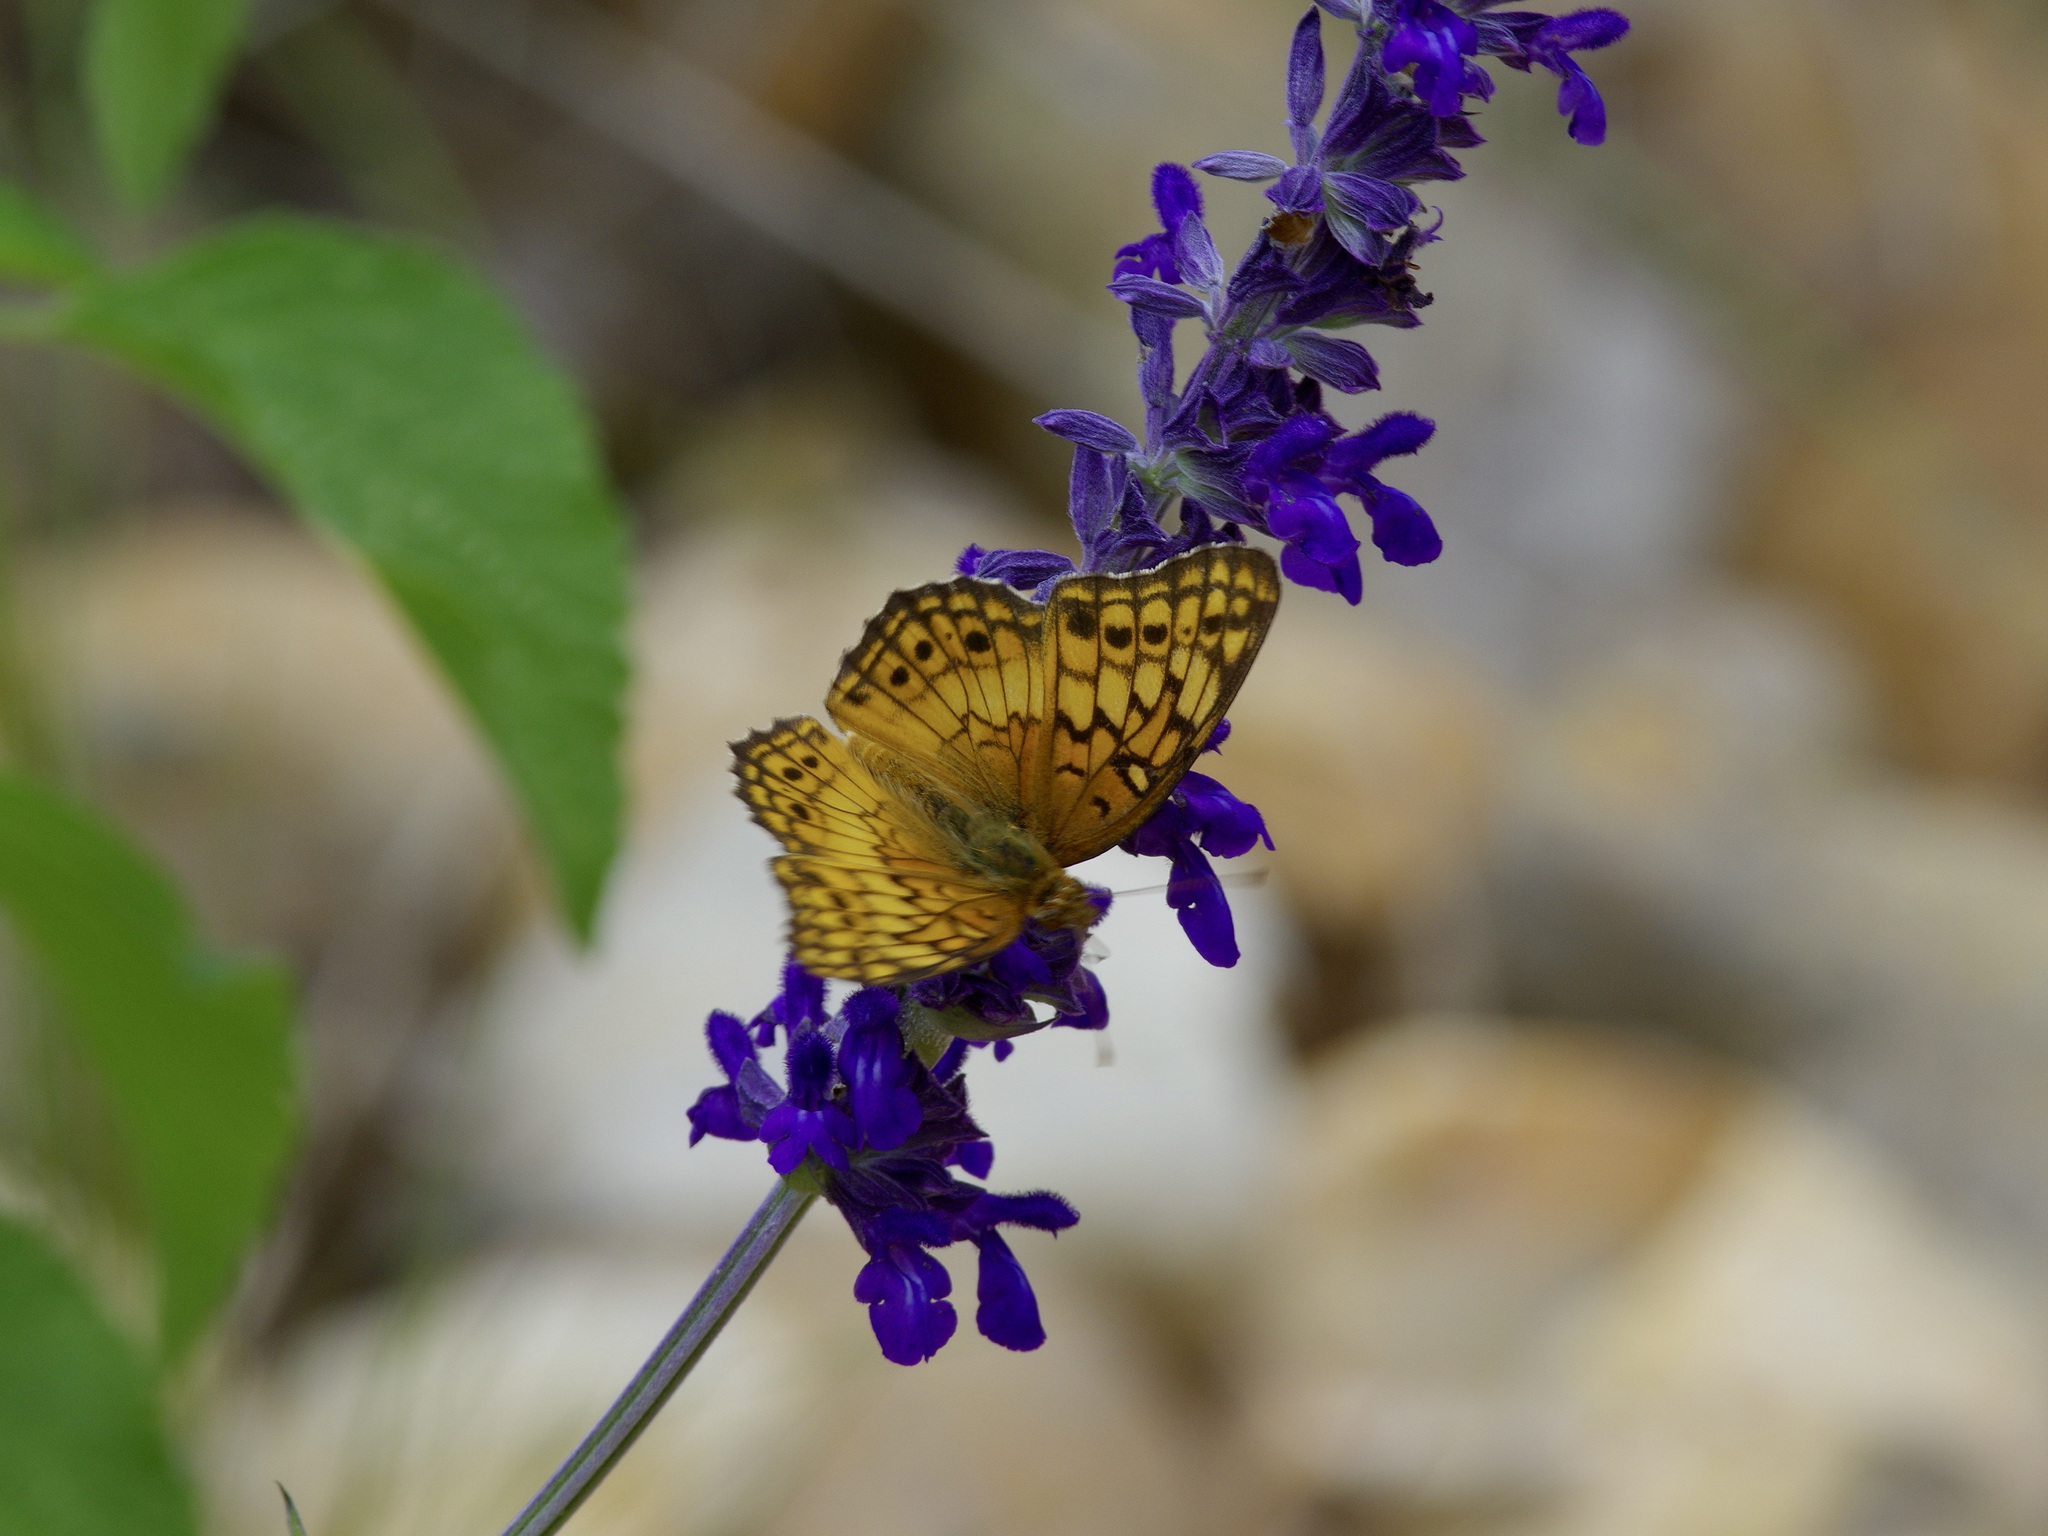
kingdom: Animalia
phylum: Arthropoda
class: Insecta
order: Lepidoptera
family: Nymphalidae
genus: Euptoieta
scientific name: Euptoieta claudia
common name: Variegated fritillary
